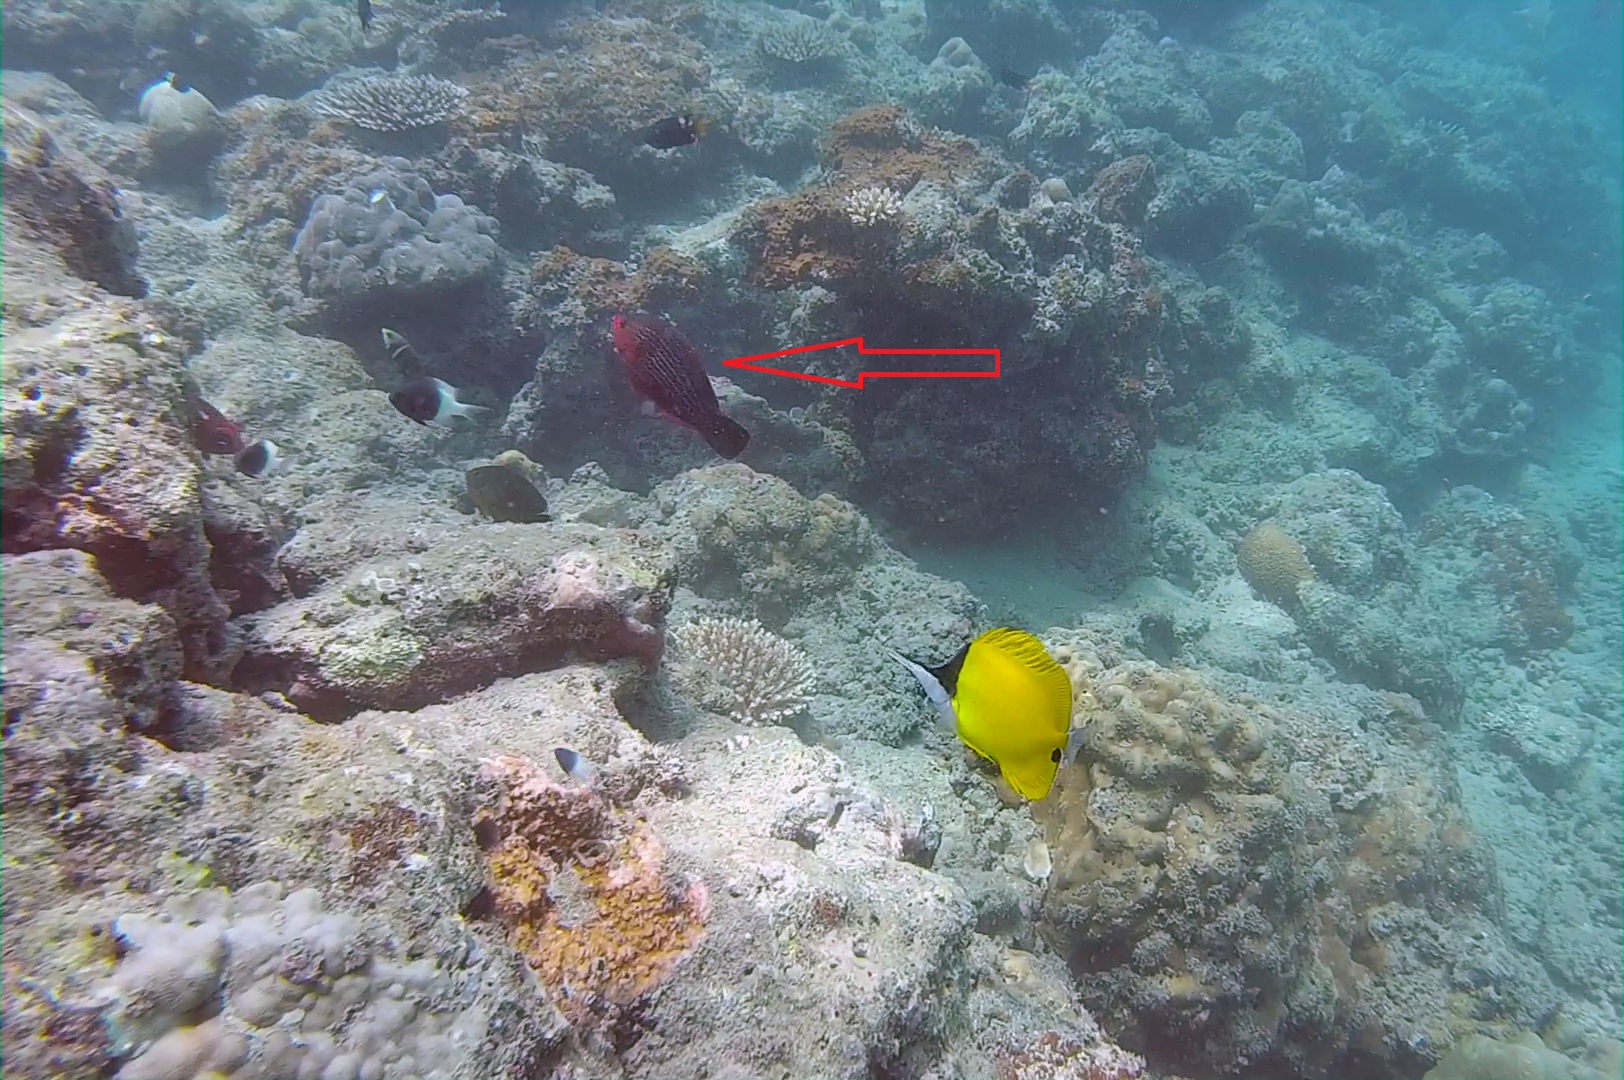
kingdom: Animalia
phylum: Chordata
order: Perciformes
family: Scaridae
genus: Scarus
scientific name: Scarus niger
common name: Dusky parrotfish
